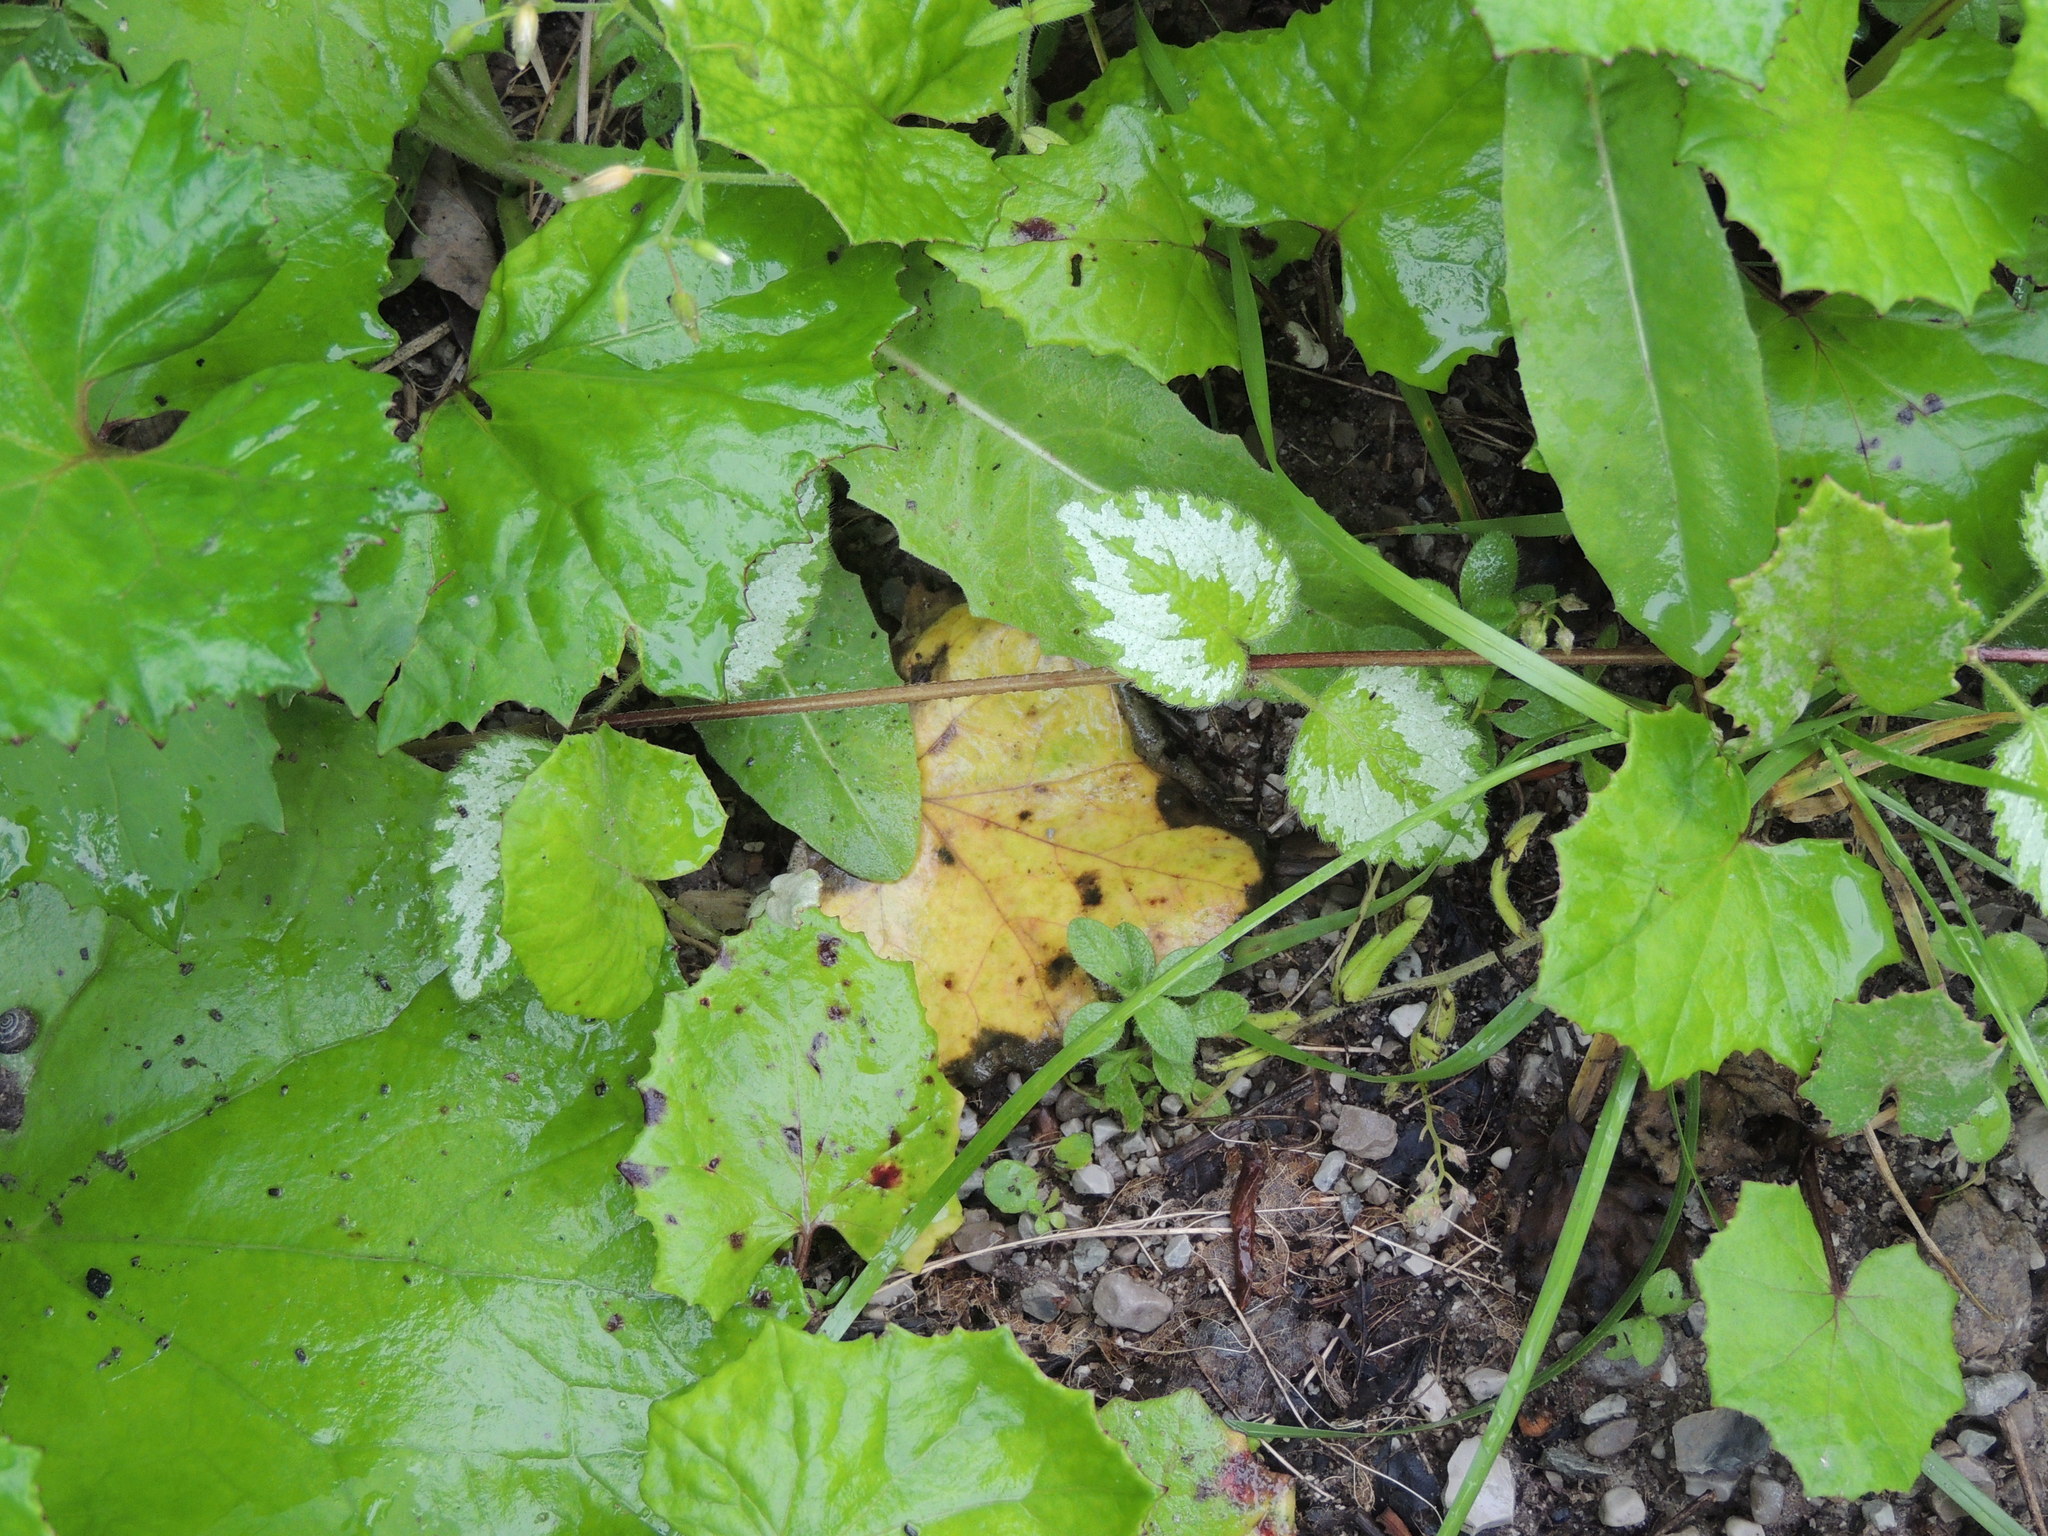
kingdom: Plantae
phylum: Tracheophyta
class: Magnoliopsida
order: Lamiales
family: Lamiaceae
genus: Lamium
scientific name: Lamium galeobdolon
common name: Yellow archangel
